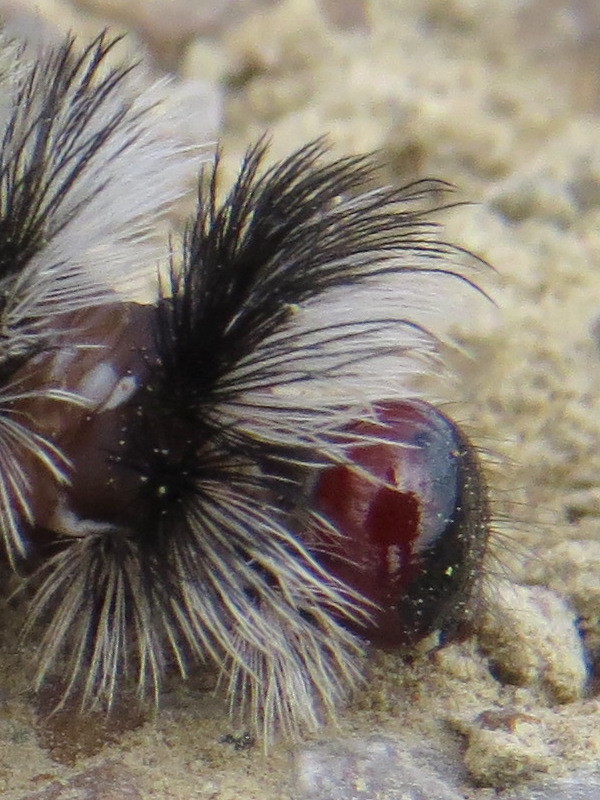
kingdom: Animalia
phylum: Arthropoda
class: Insecta
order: Lepidoptera
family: Erebidae
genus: Ctenucha
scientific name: Ctenucha virginica
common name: Virginia ctenucha moth
